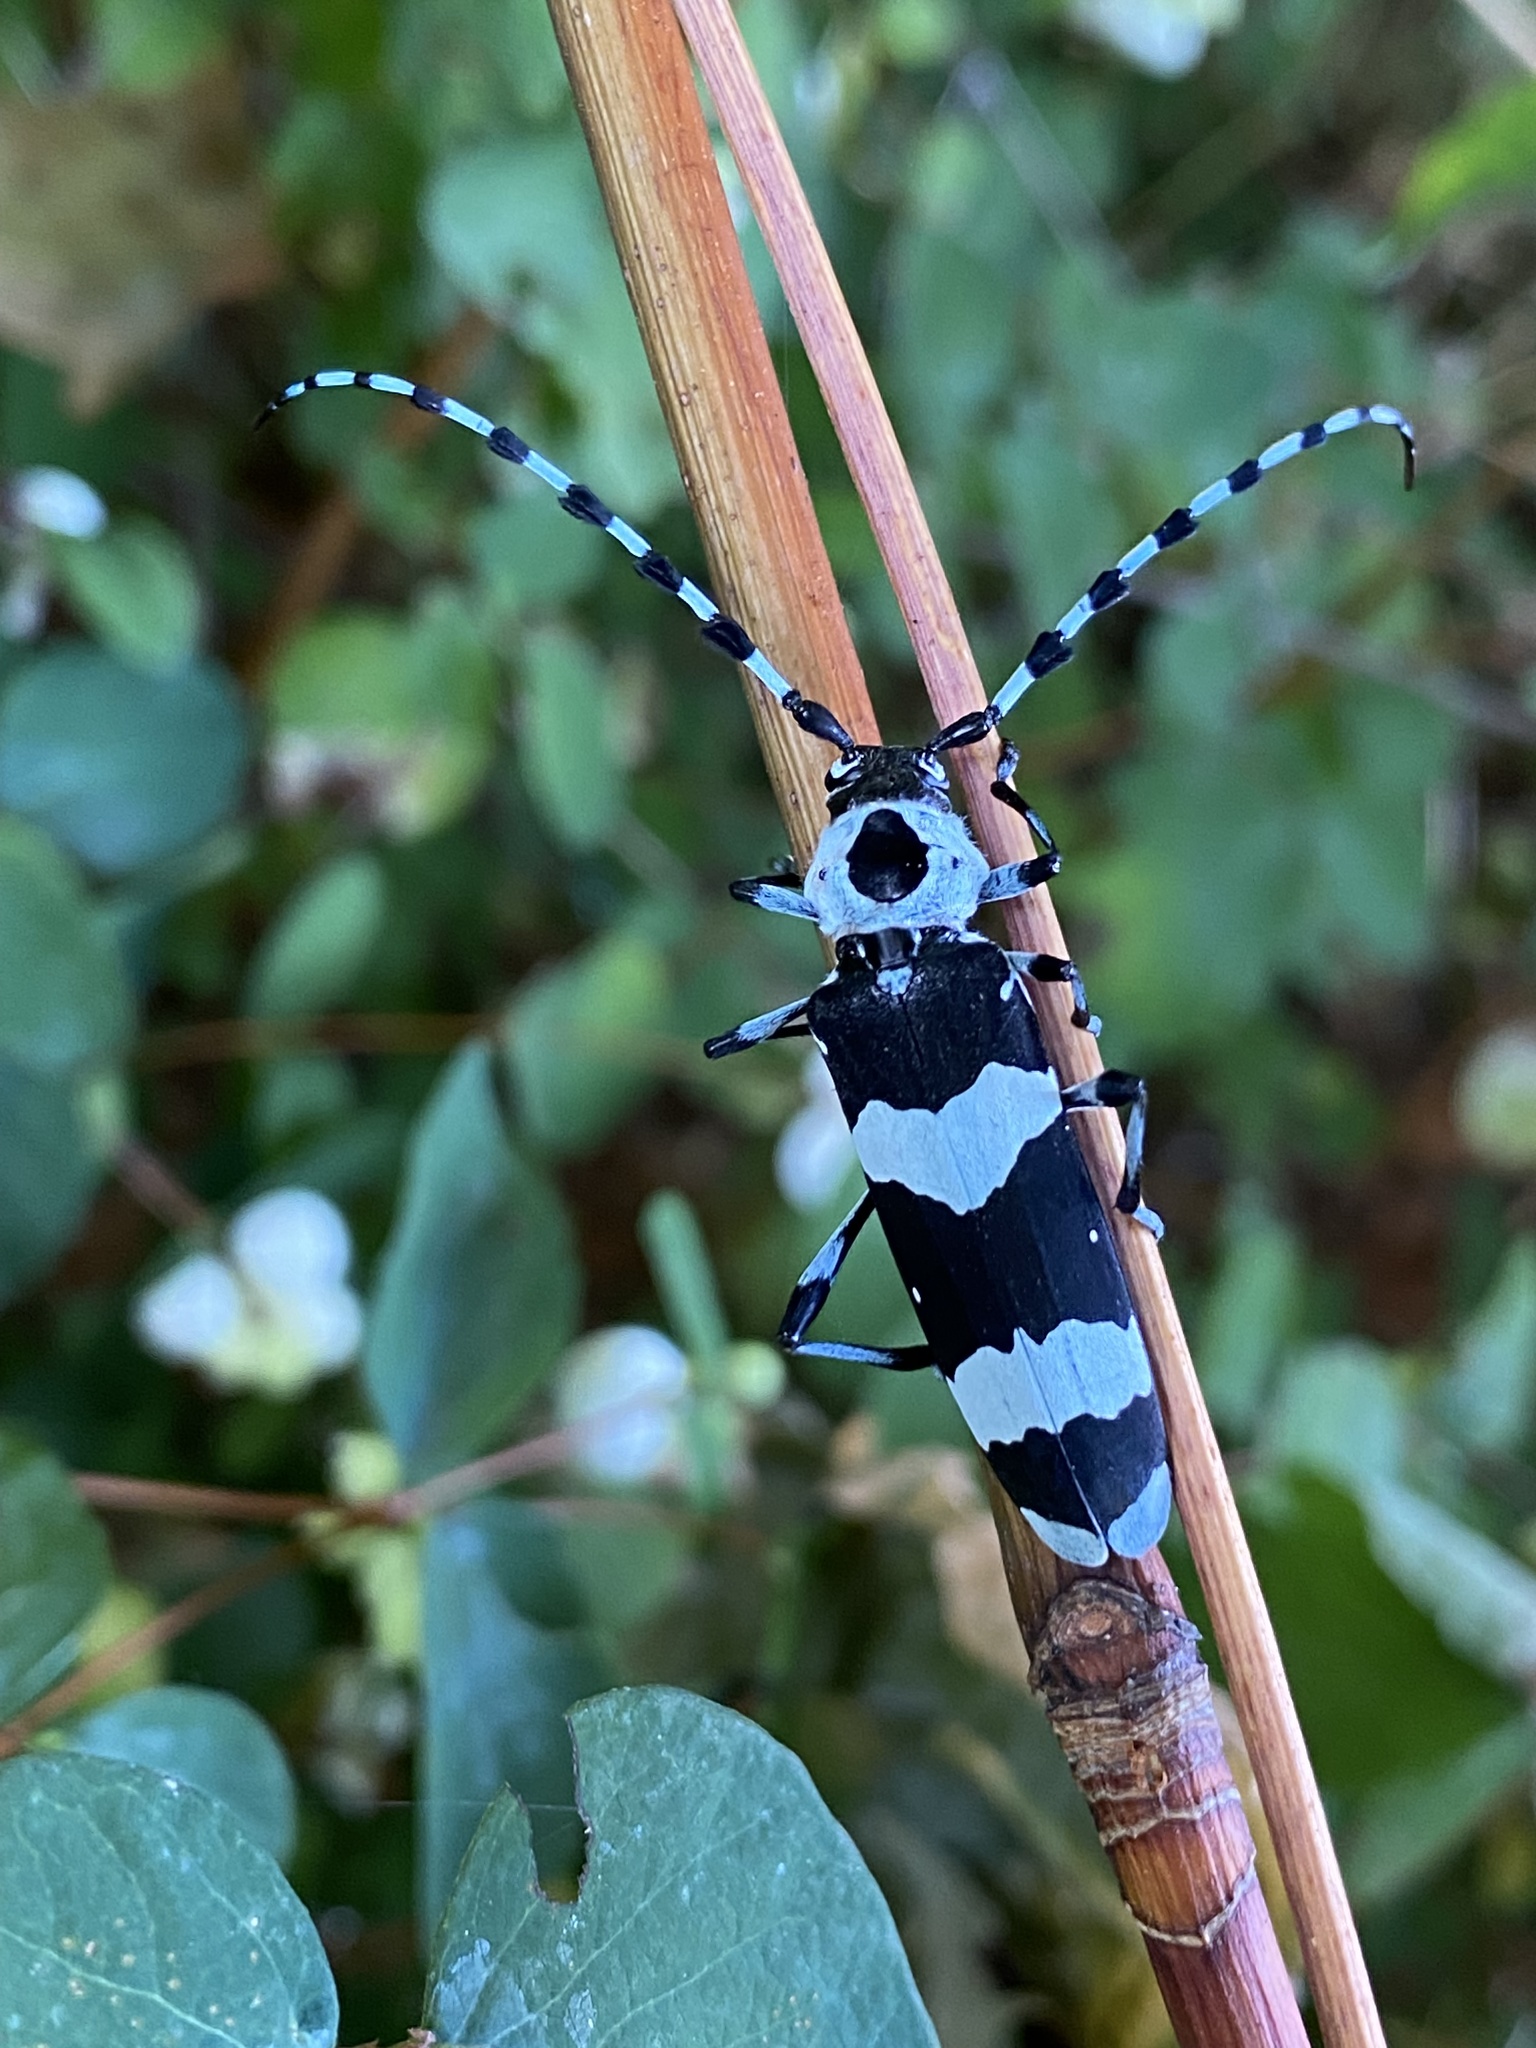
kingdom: Animalia
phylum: Arthropoda
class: Insecta
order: Coleoptera
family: Cerambycidae
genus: Rosalia
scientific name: Rosalia funebris
